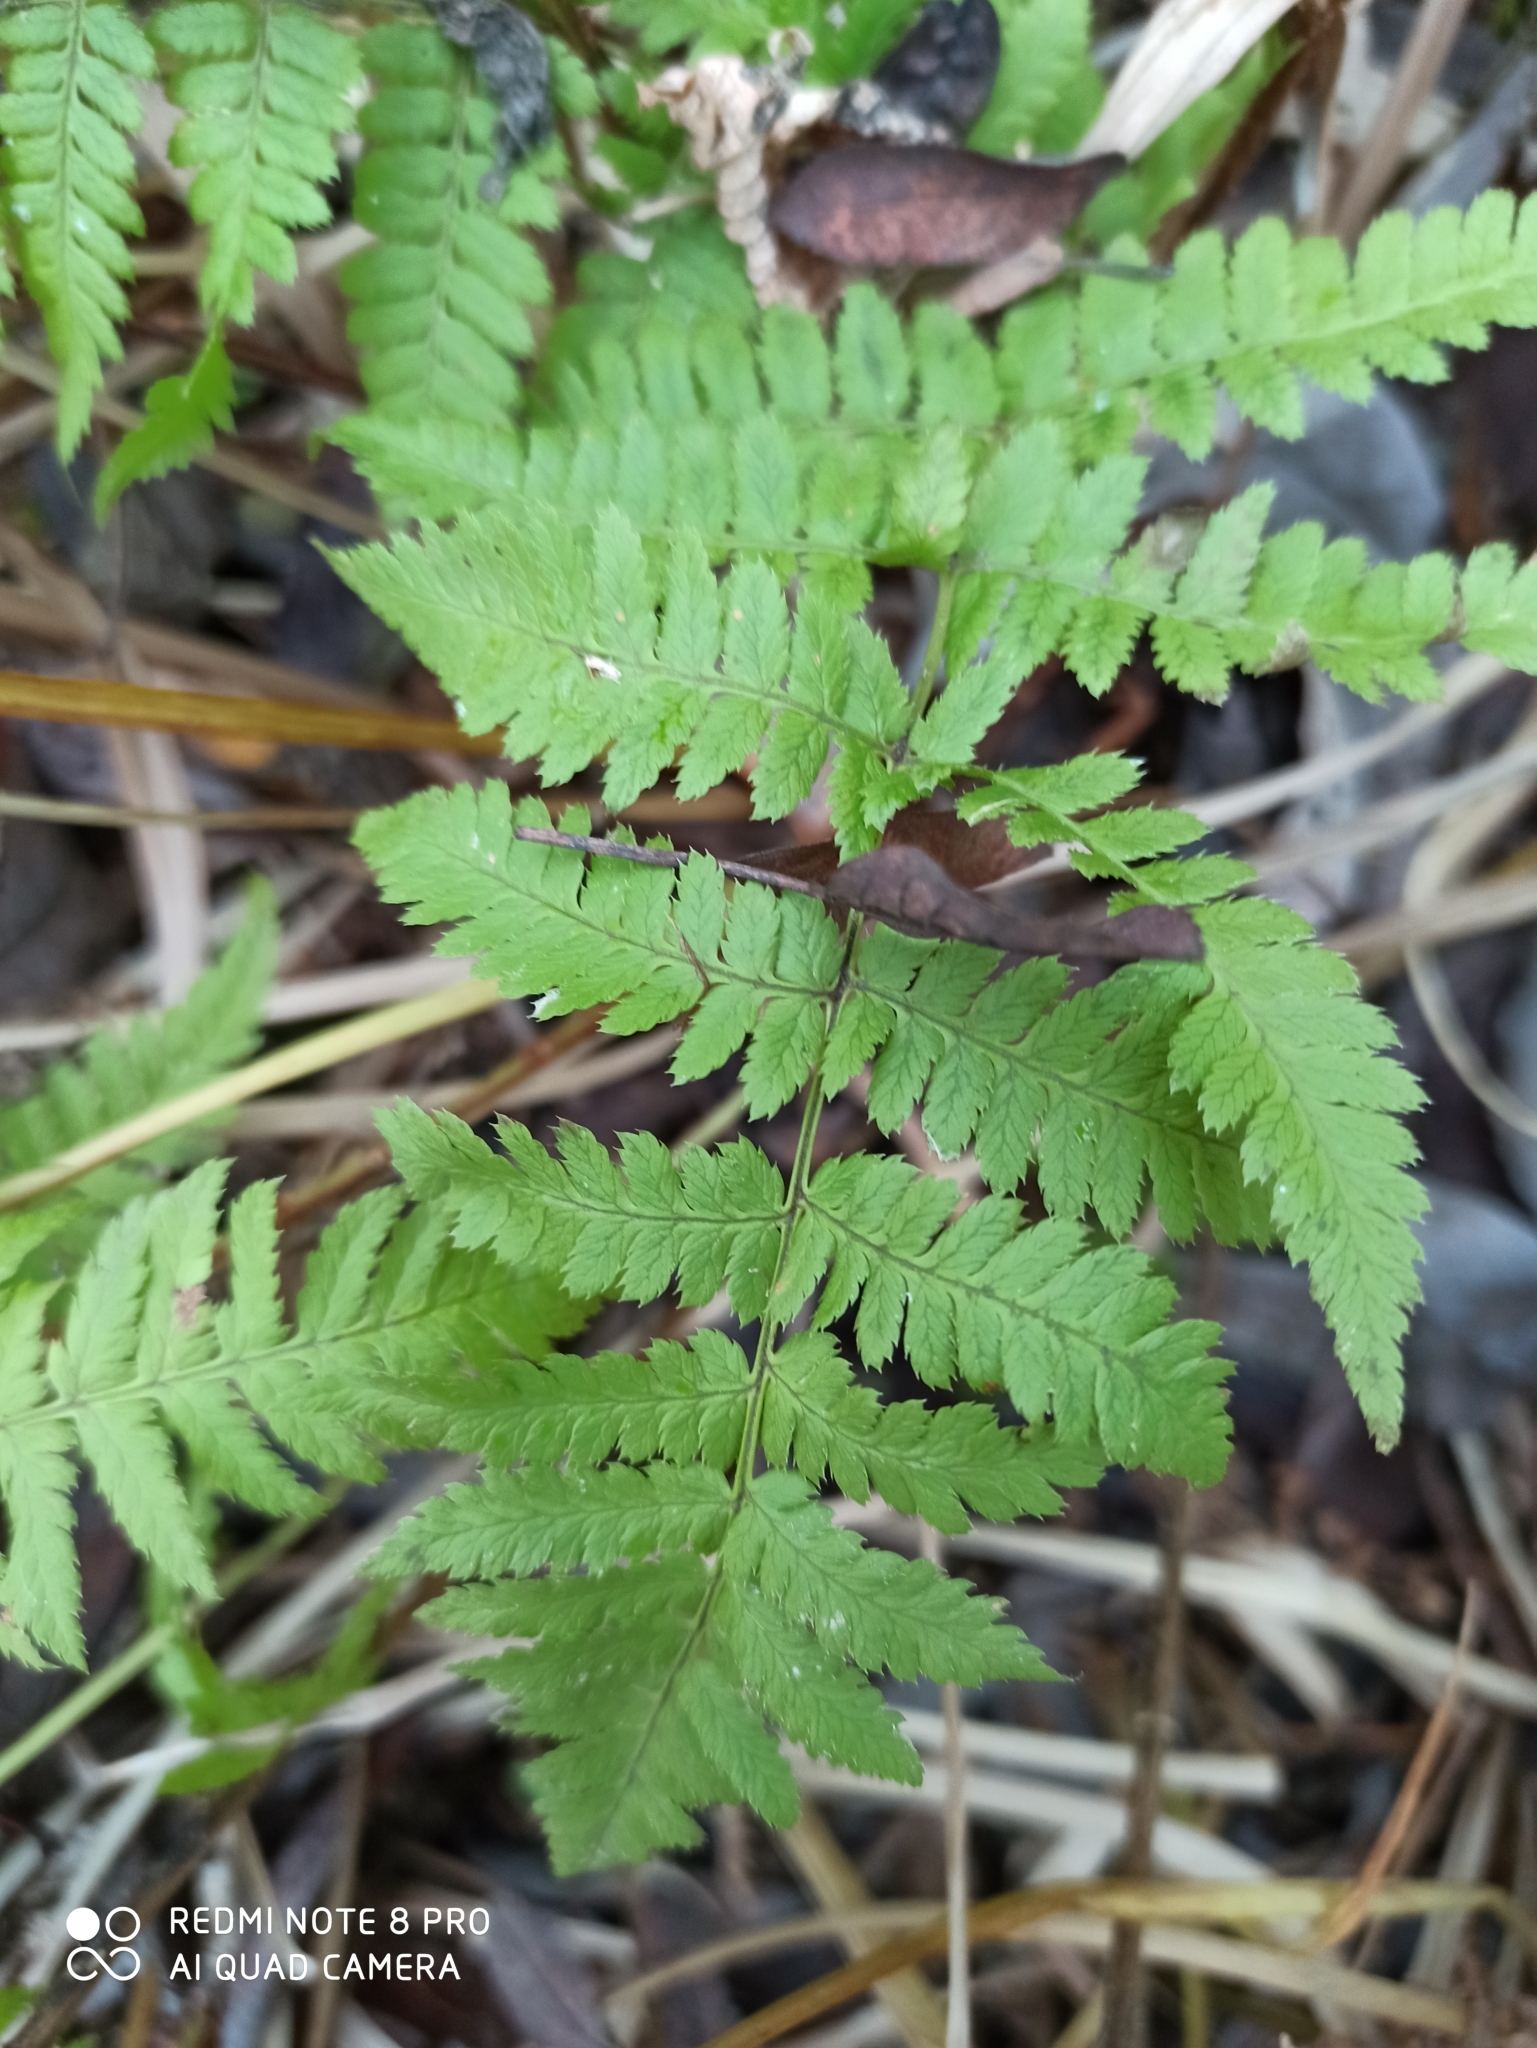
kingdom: Plantae
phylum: Tracheophyta
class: Polypodiopsida
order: Polypodiales
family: Dryopteridaceae
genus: Dryopteris
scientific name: Dryopteris carthusiana
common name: Narrow buckler-fern
